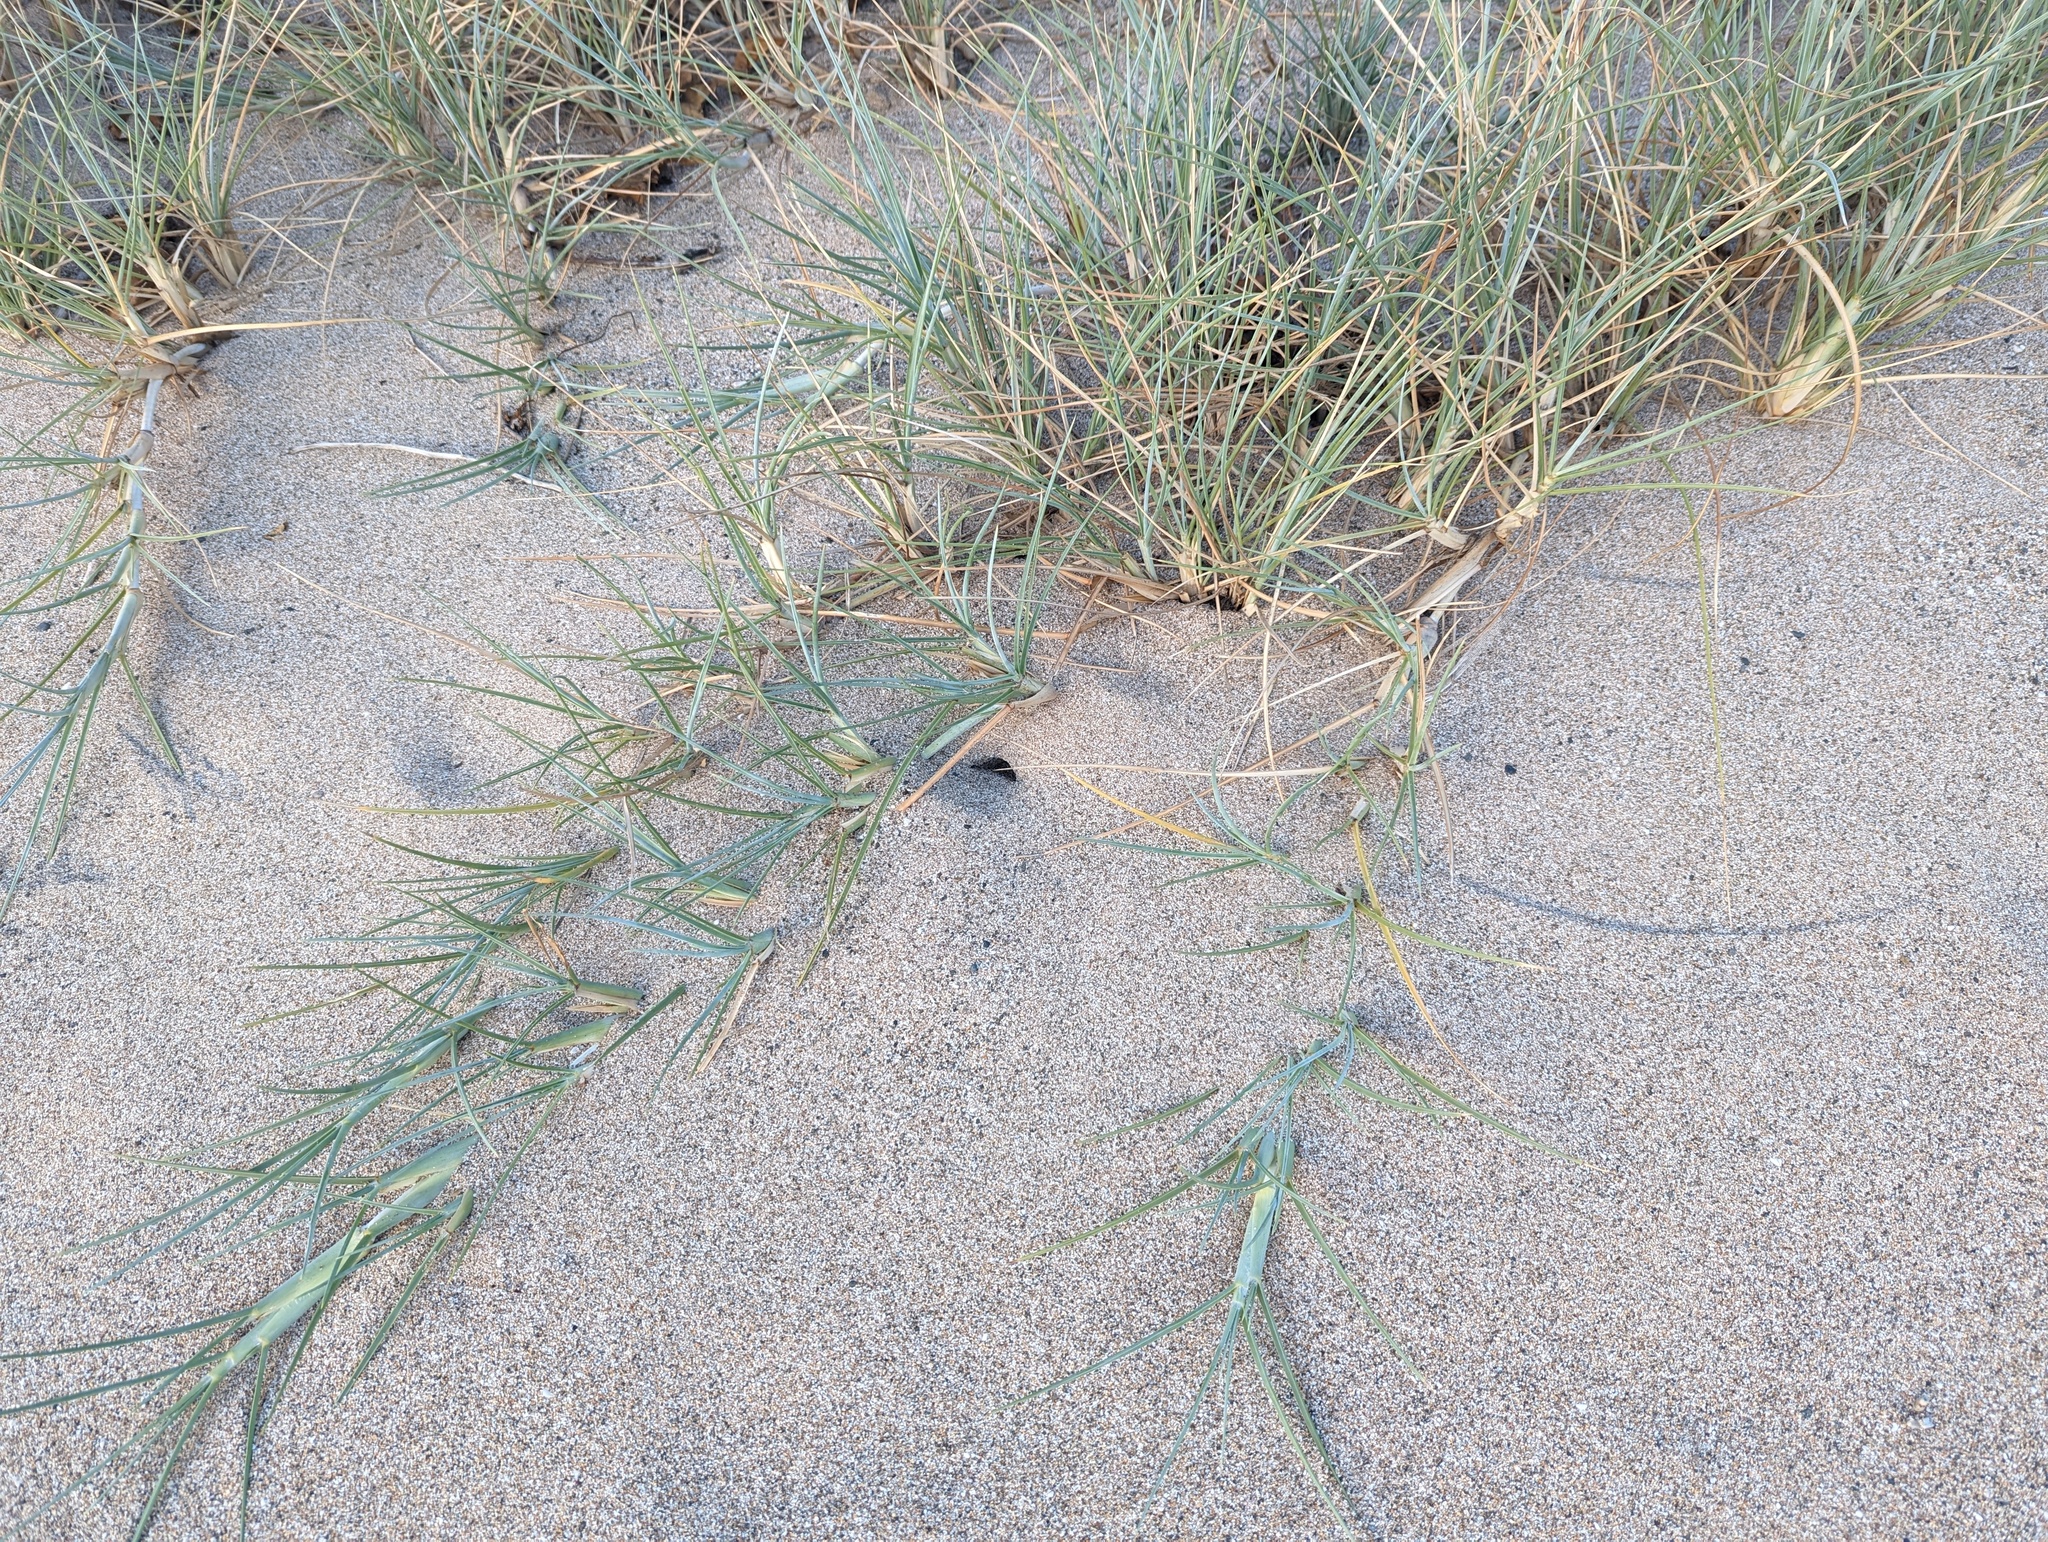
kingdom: Plantae
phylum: Tracheophyta
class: Liliopsida
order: Poales
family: Poaceae
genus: Spinifex
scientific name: Spinifex littoreus
